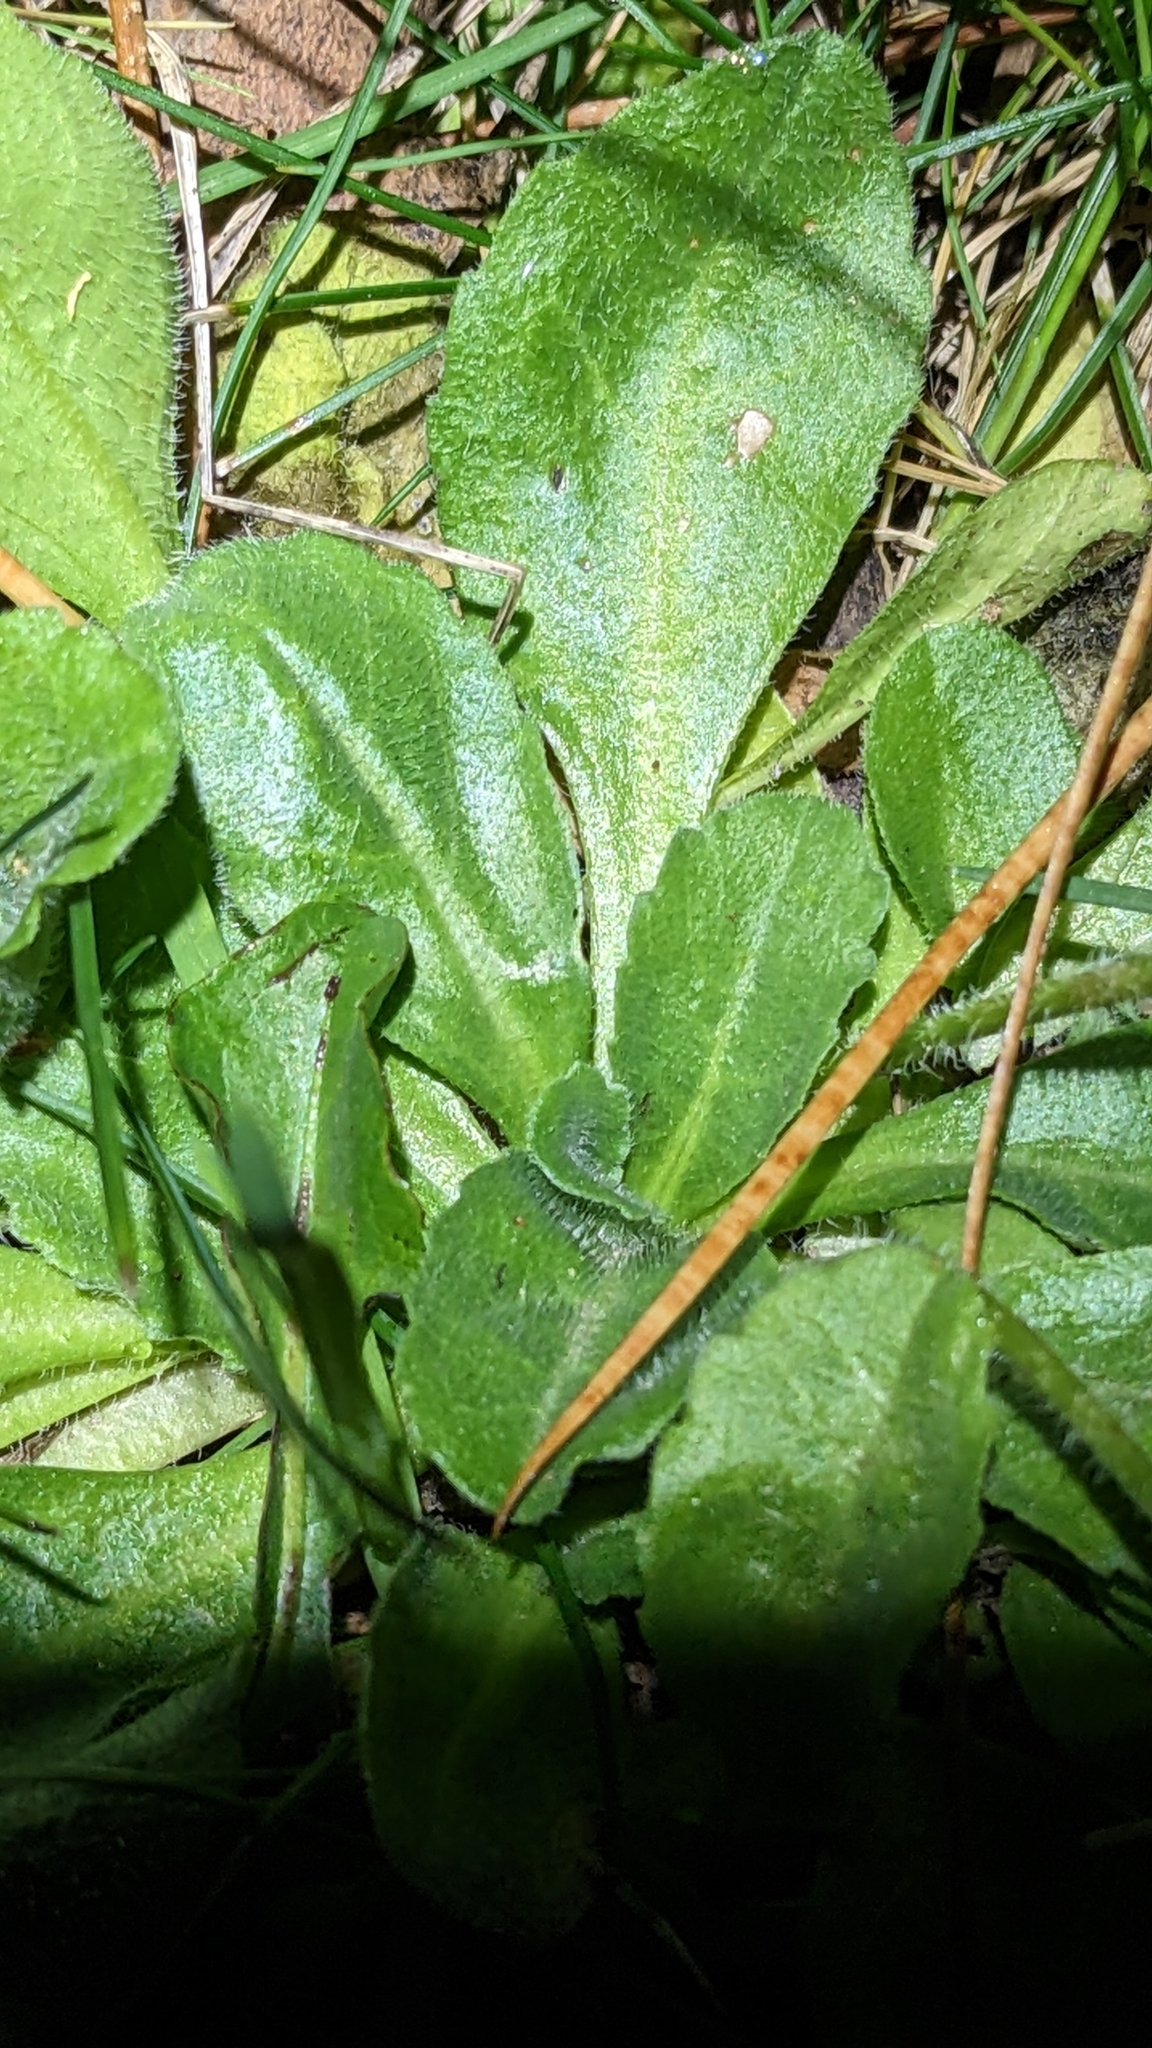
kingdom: Plantae
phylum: Tracheophyta
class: Magnoliopsida
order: Asterales
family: Asteraceae
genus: Bellis
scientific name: Bellis perennis
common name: Lawndaisy
